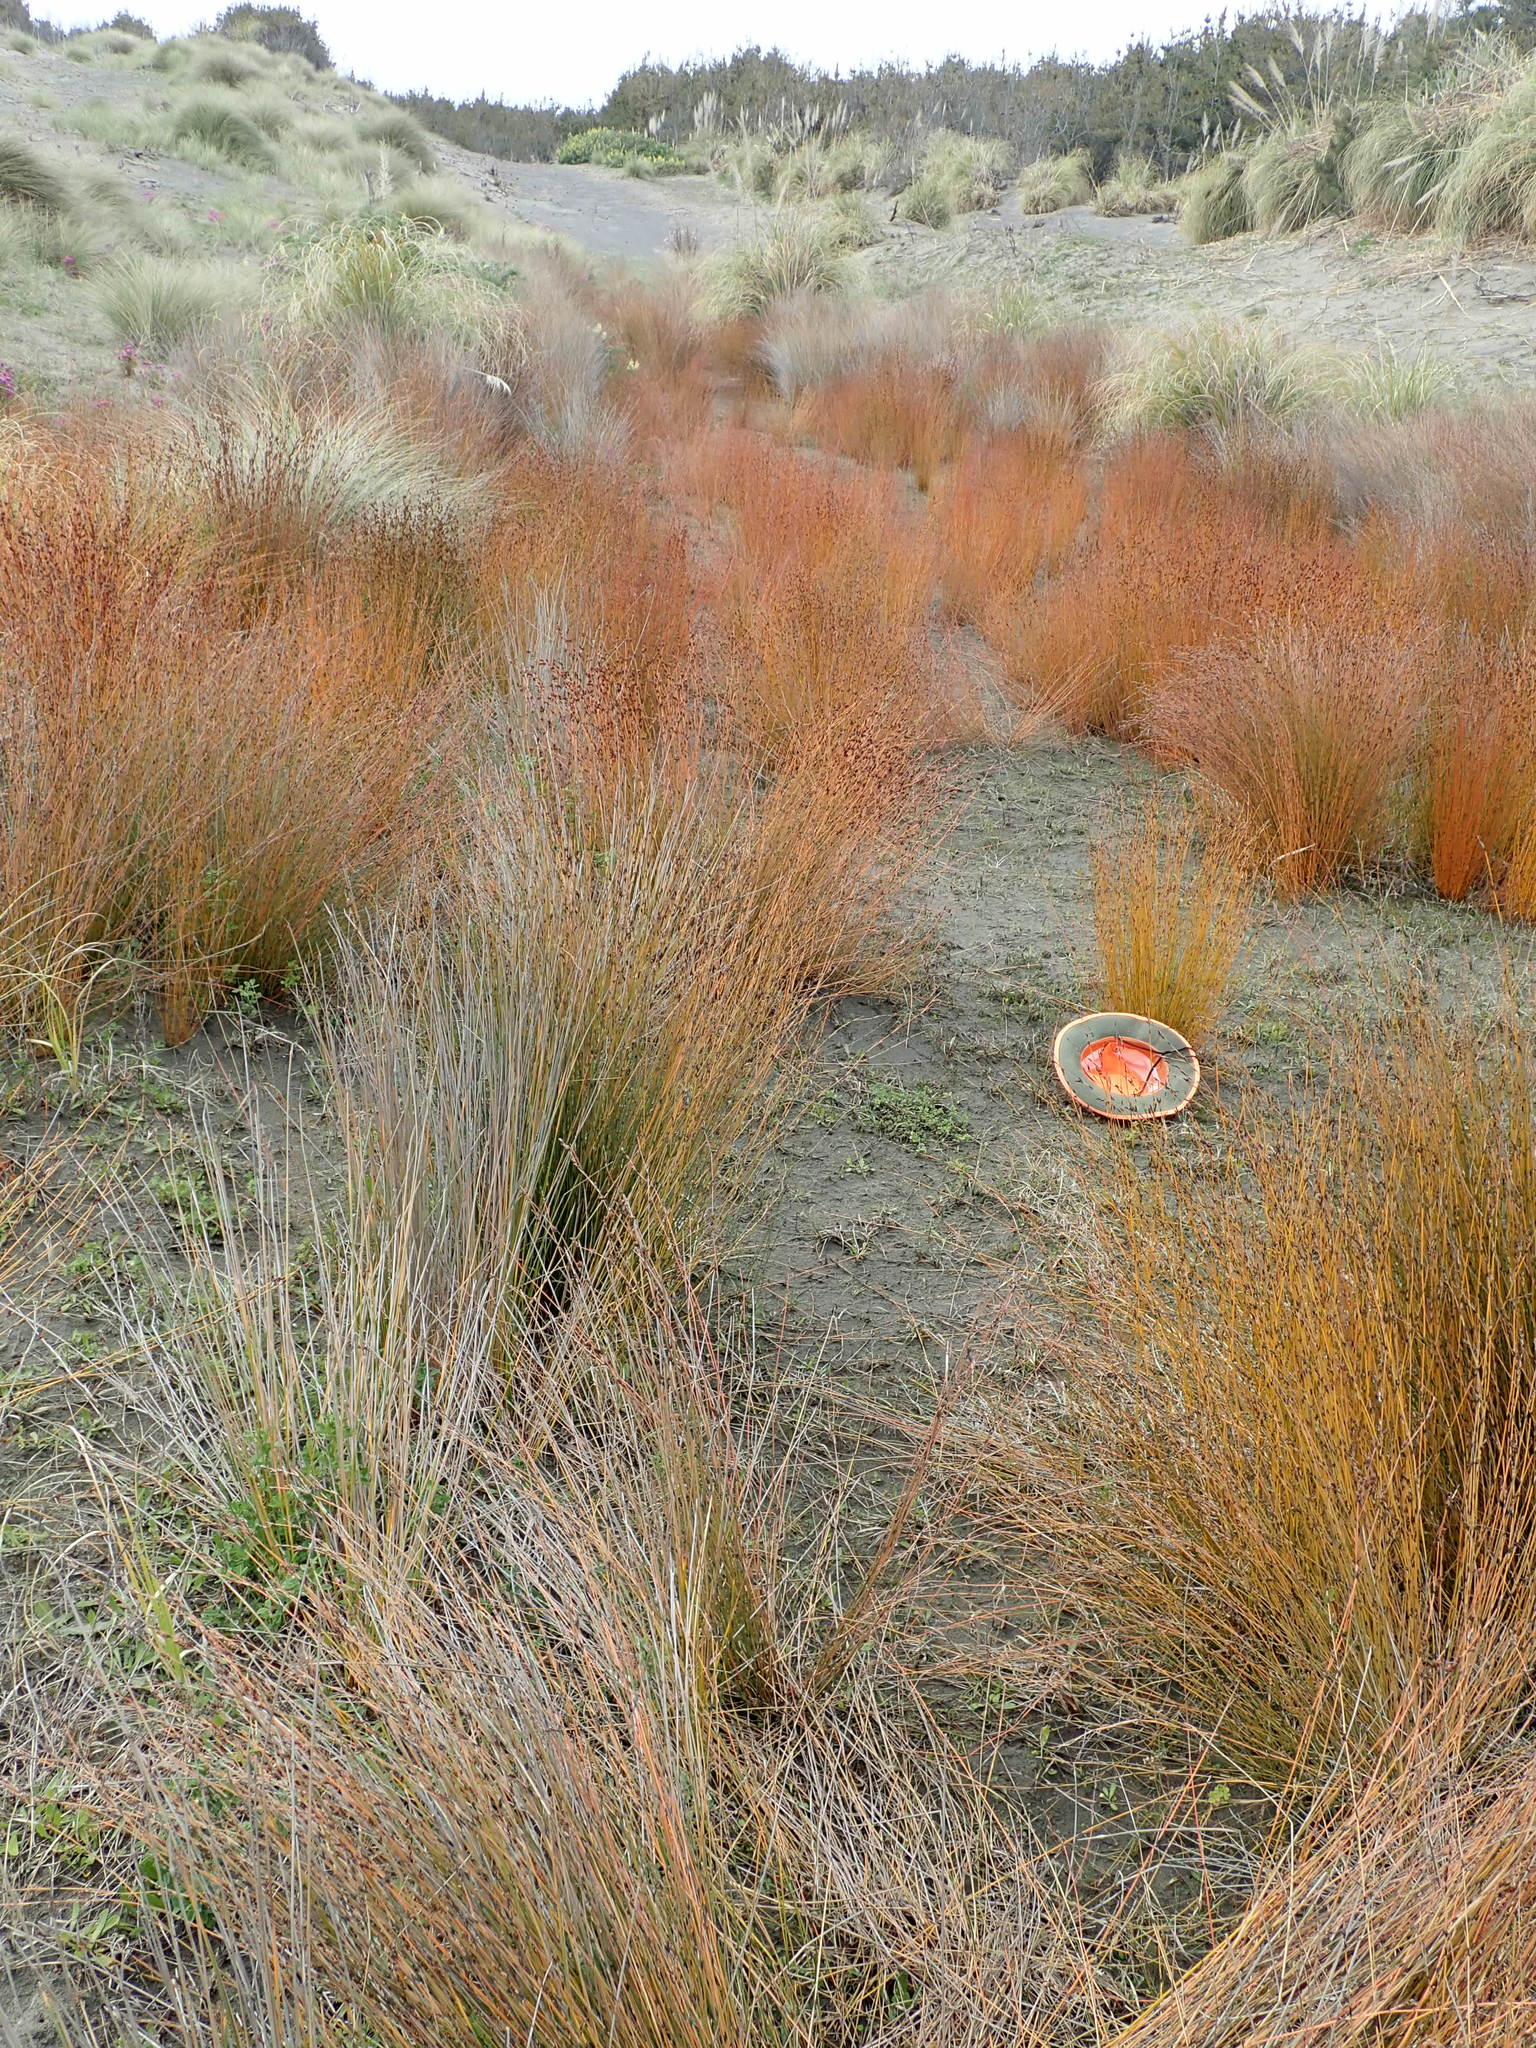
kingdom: Plantae
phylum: Tracheophyta
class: Magnoliopsida
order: Ranunculales
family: Ranunculaceae
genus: Ranunculus
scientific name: Ranunculus acaulis
